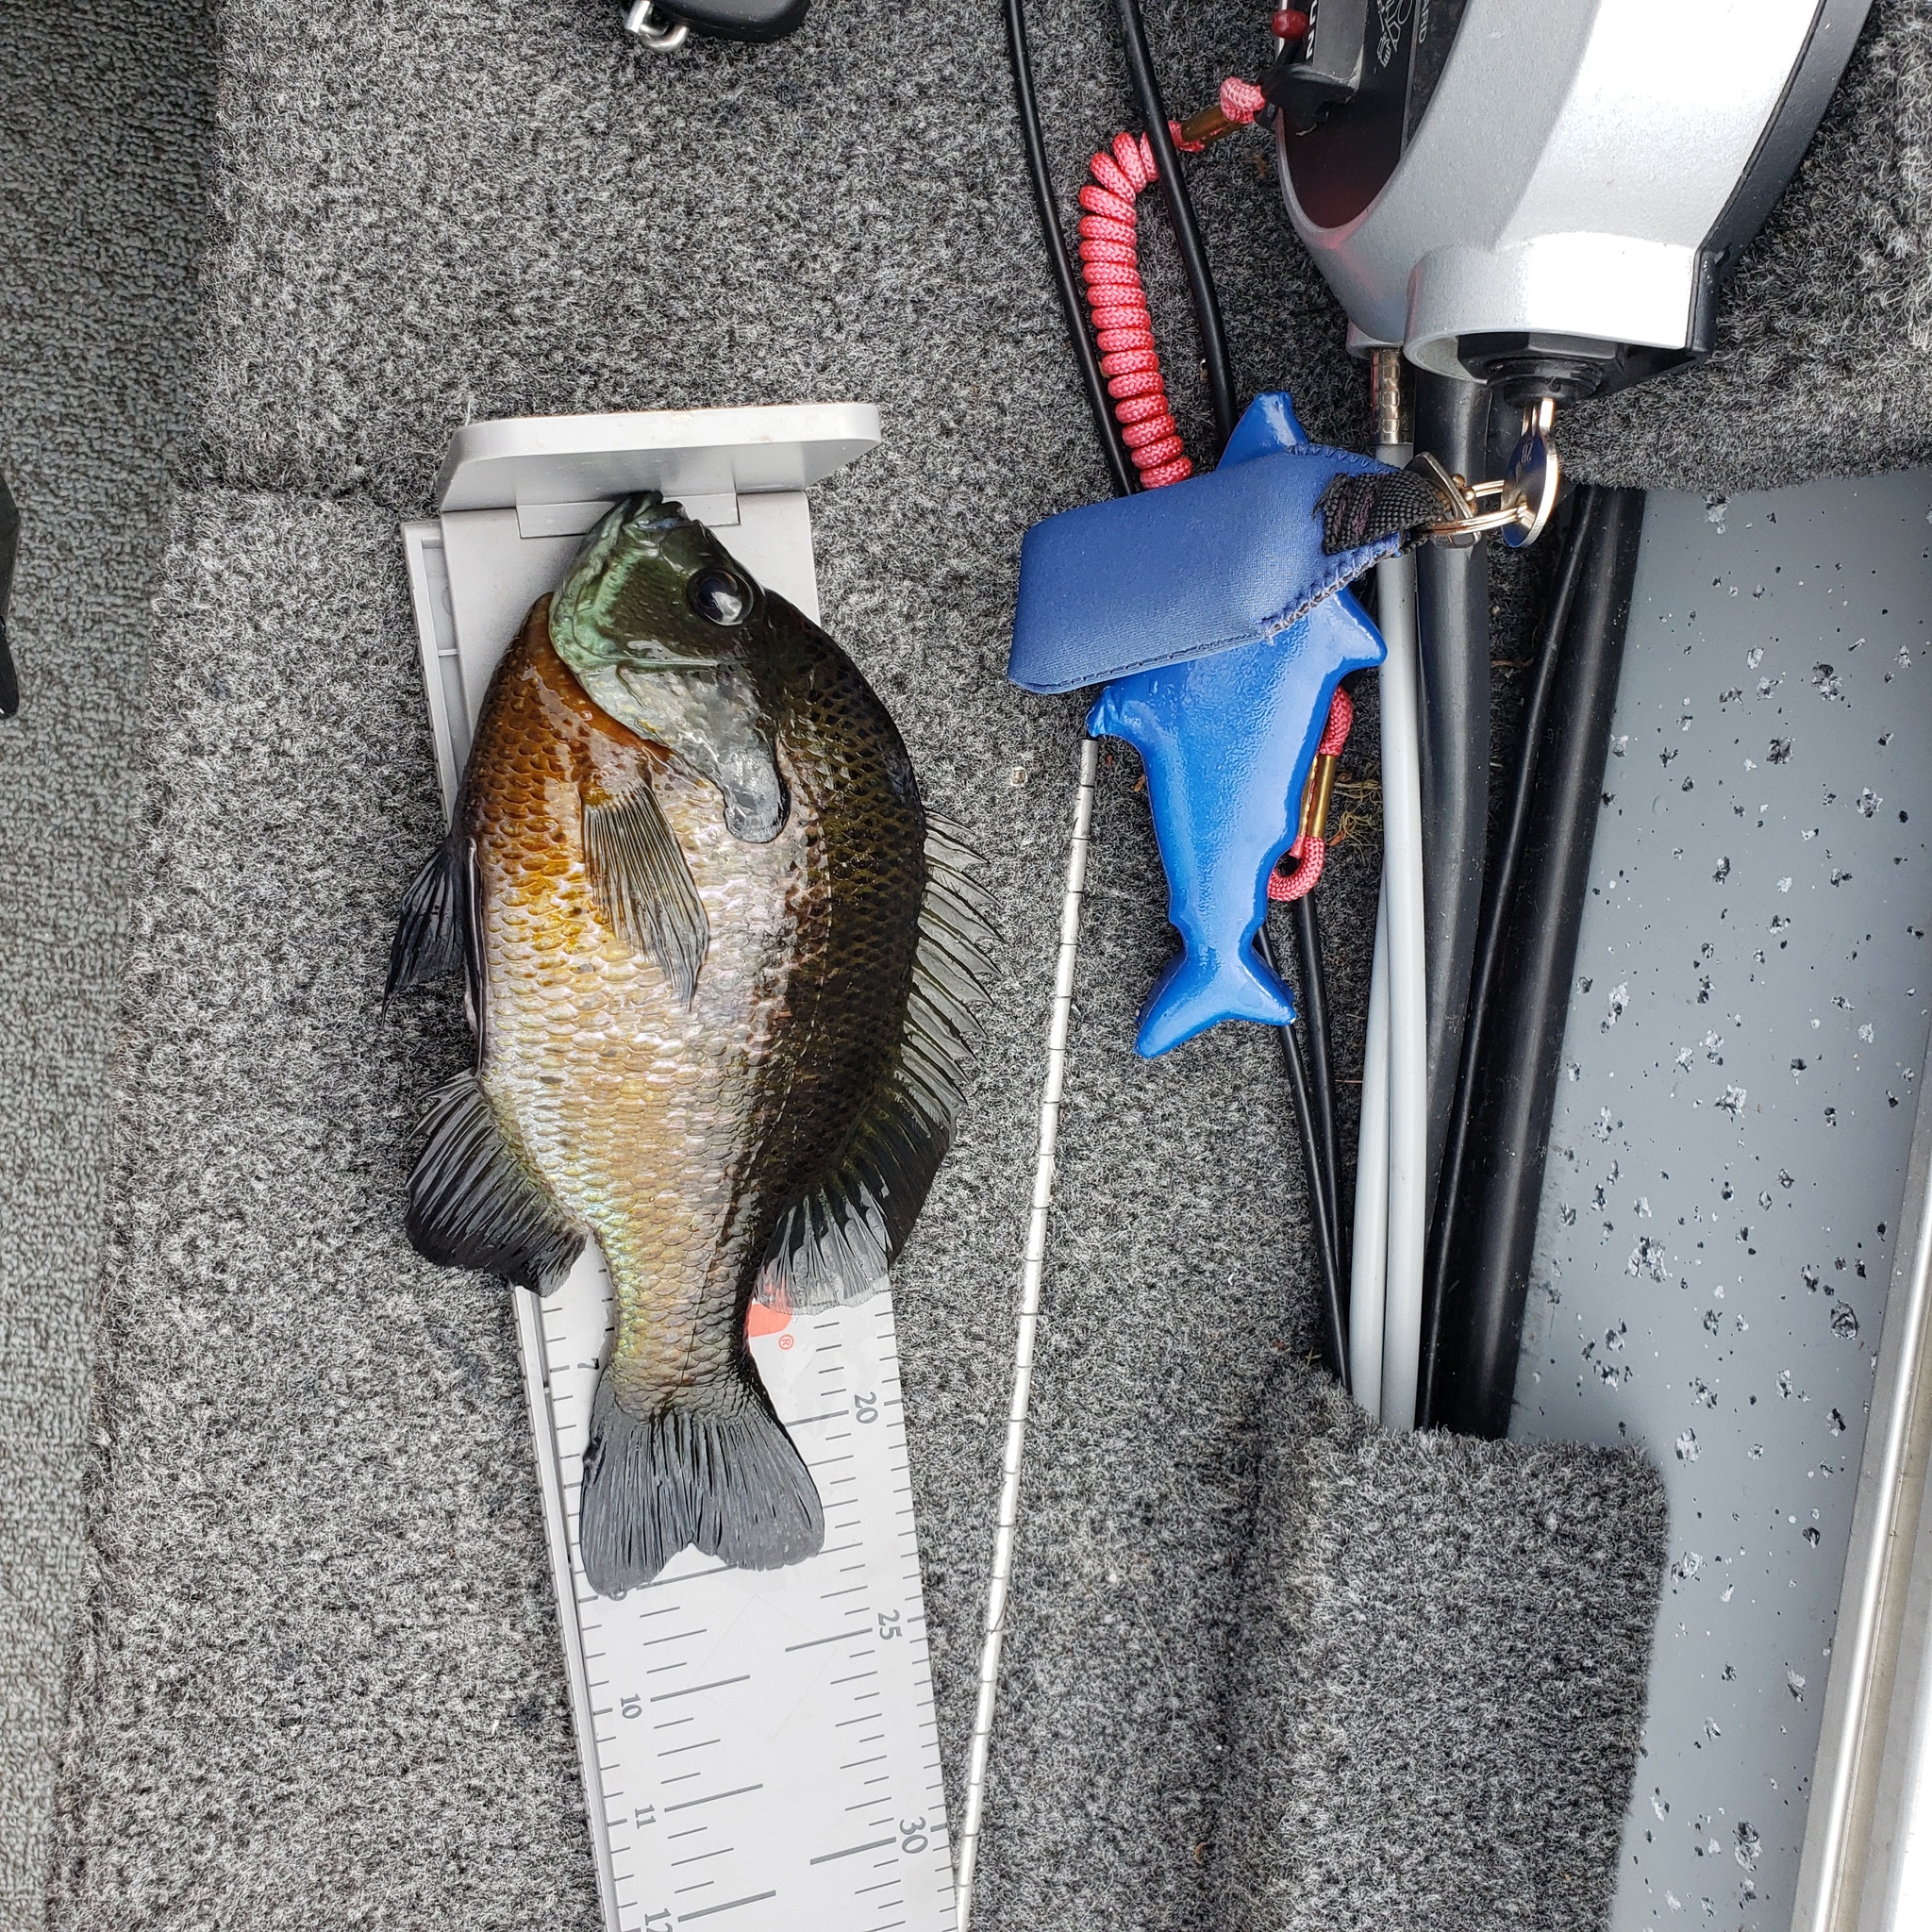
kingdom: Animalia
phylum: Chordata
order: Perciformes
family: Centrarchidae
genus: Lepomis
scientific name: Lepomis macrochirus
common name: Bluegill
